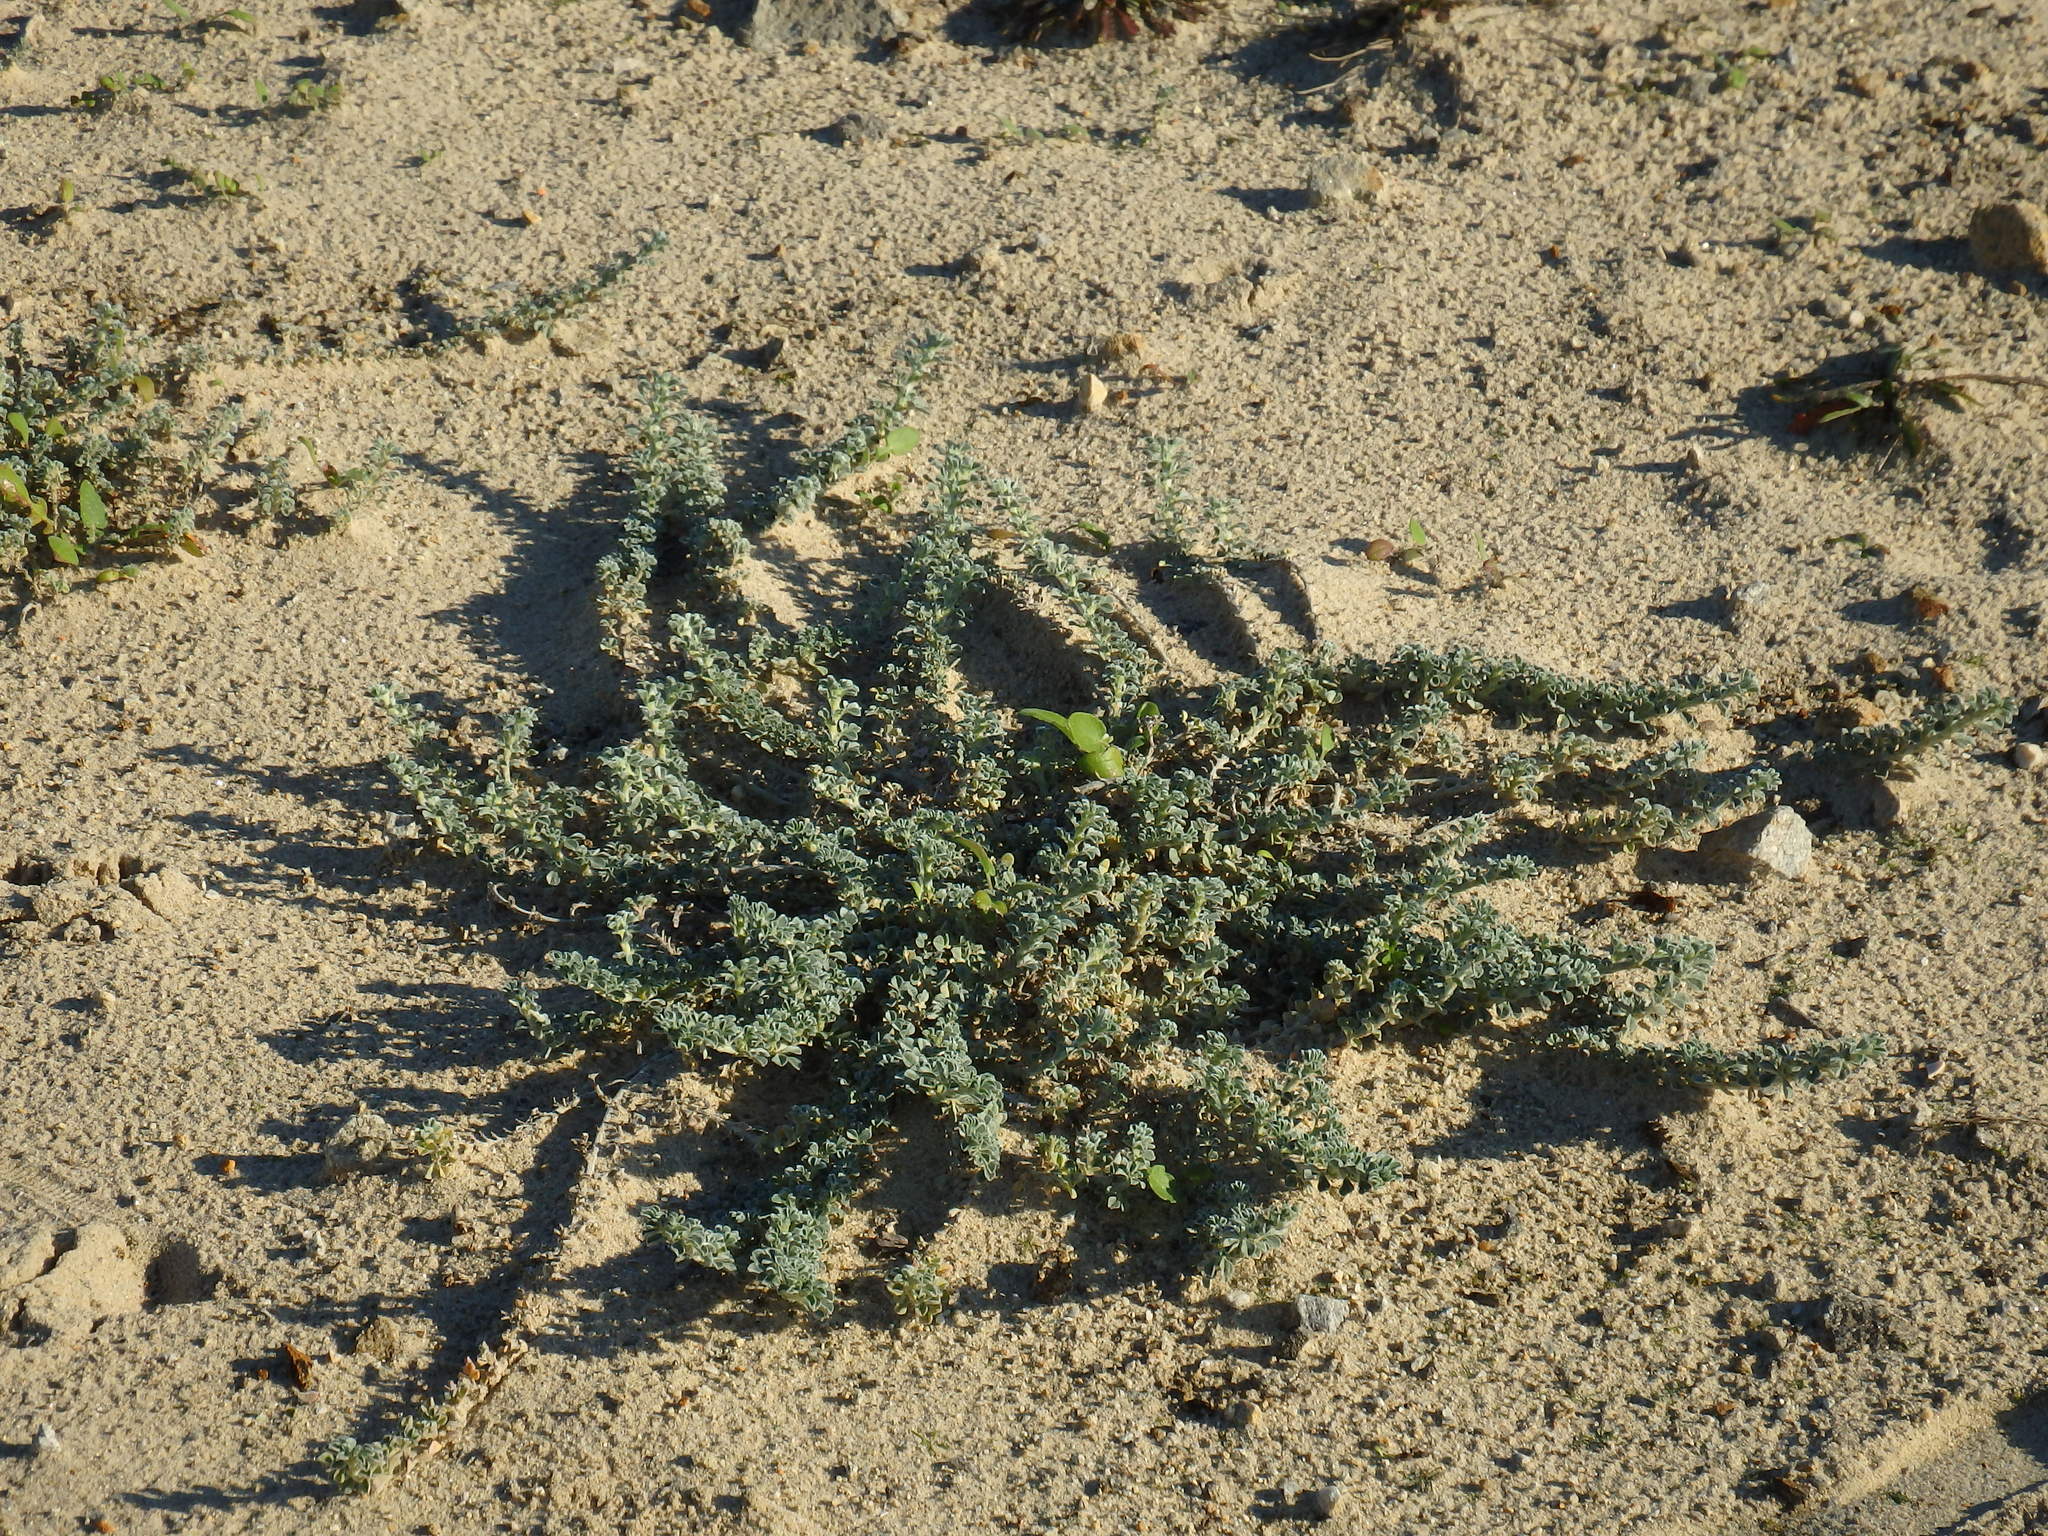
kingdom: Plantae
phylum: Tracheophyta
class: Magnoliopsida
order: Fabales
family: Fabaceae
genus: Medicago
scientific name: Medicago marina
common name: Sea medick
